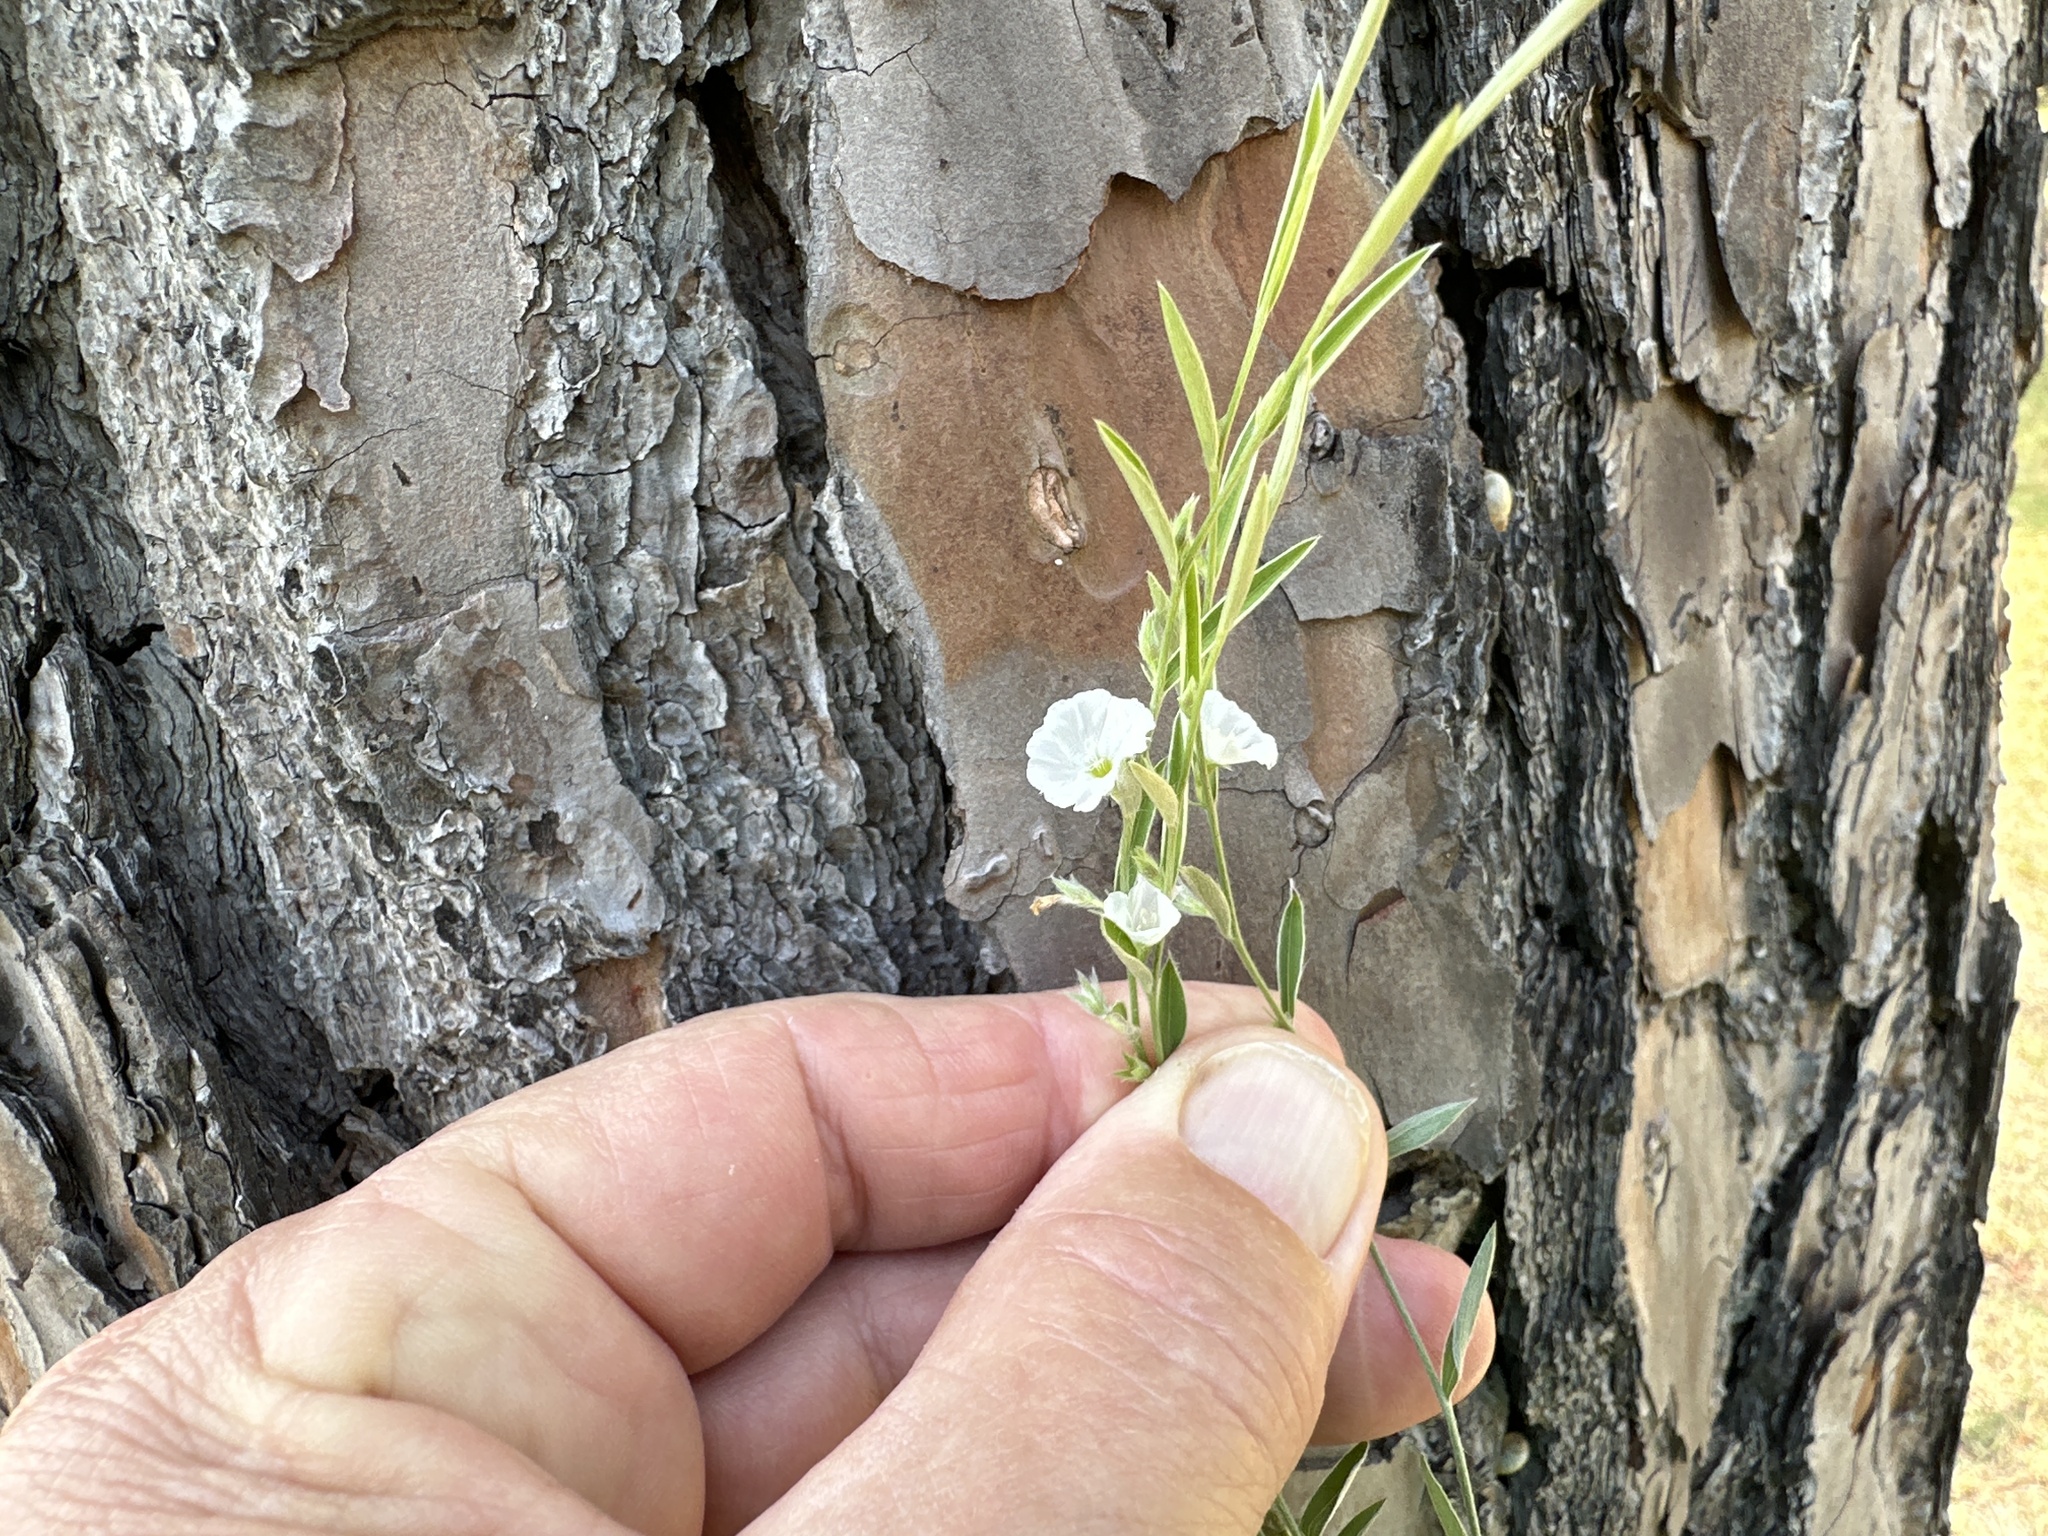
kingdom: Plantae
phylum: Tracheophyta
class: Magnoliopsida
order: Solanales
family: Convolvulaceae
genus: Evolvulus
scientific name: Evolvulus sericeus
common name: Blue dots
